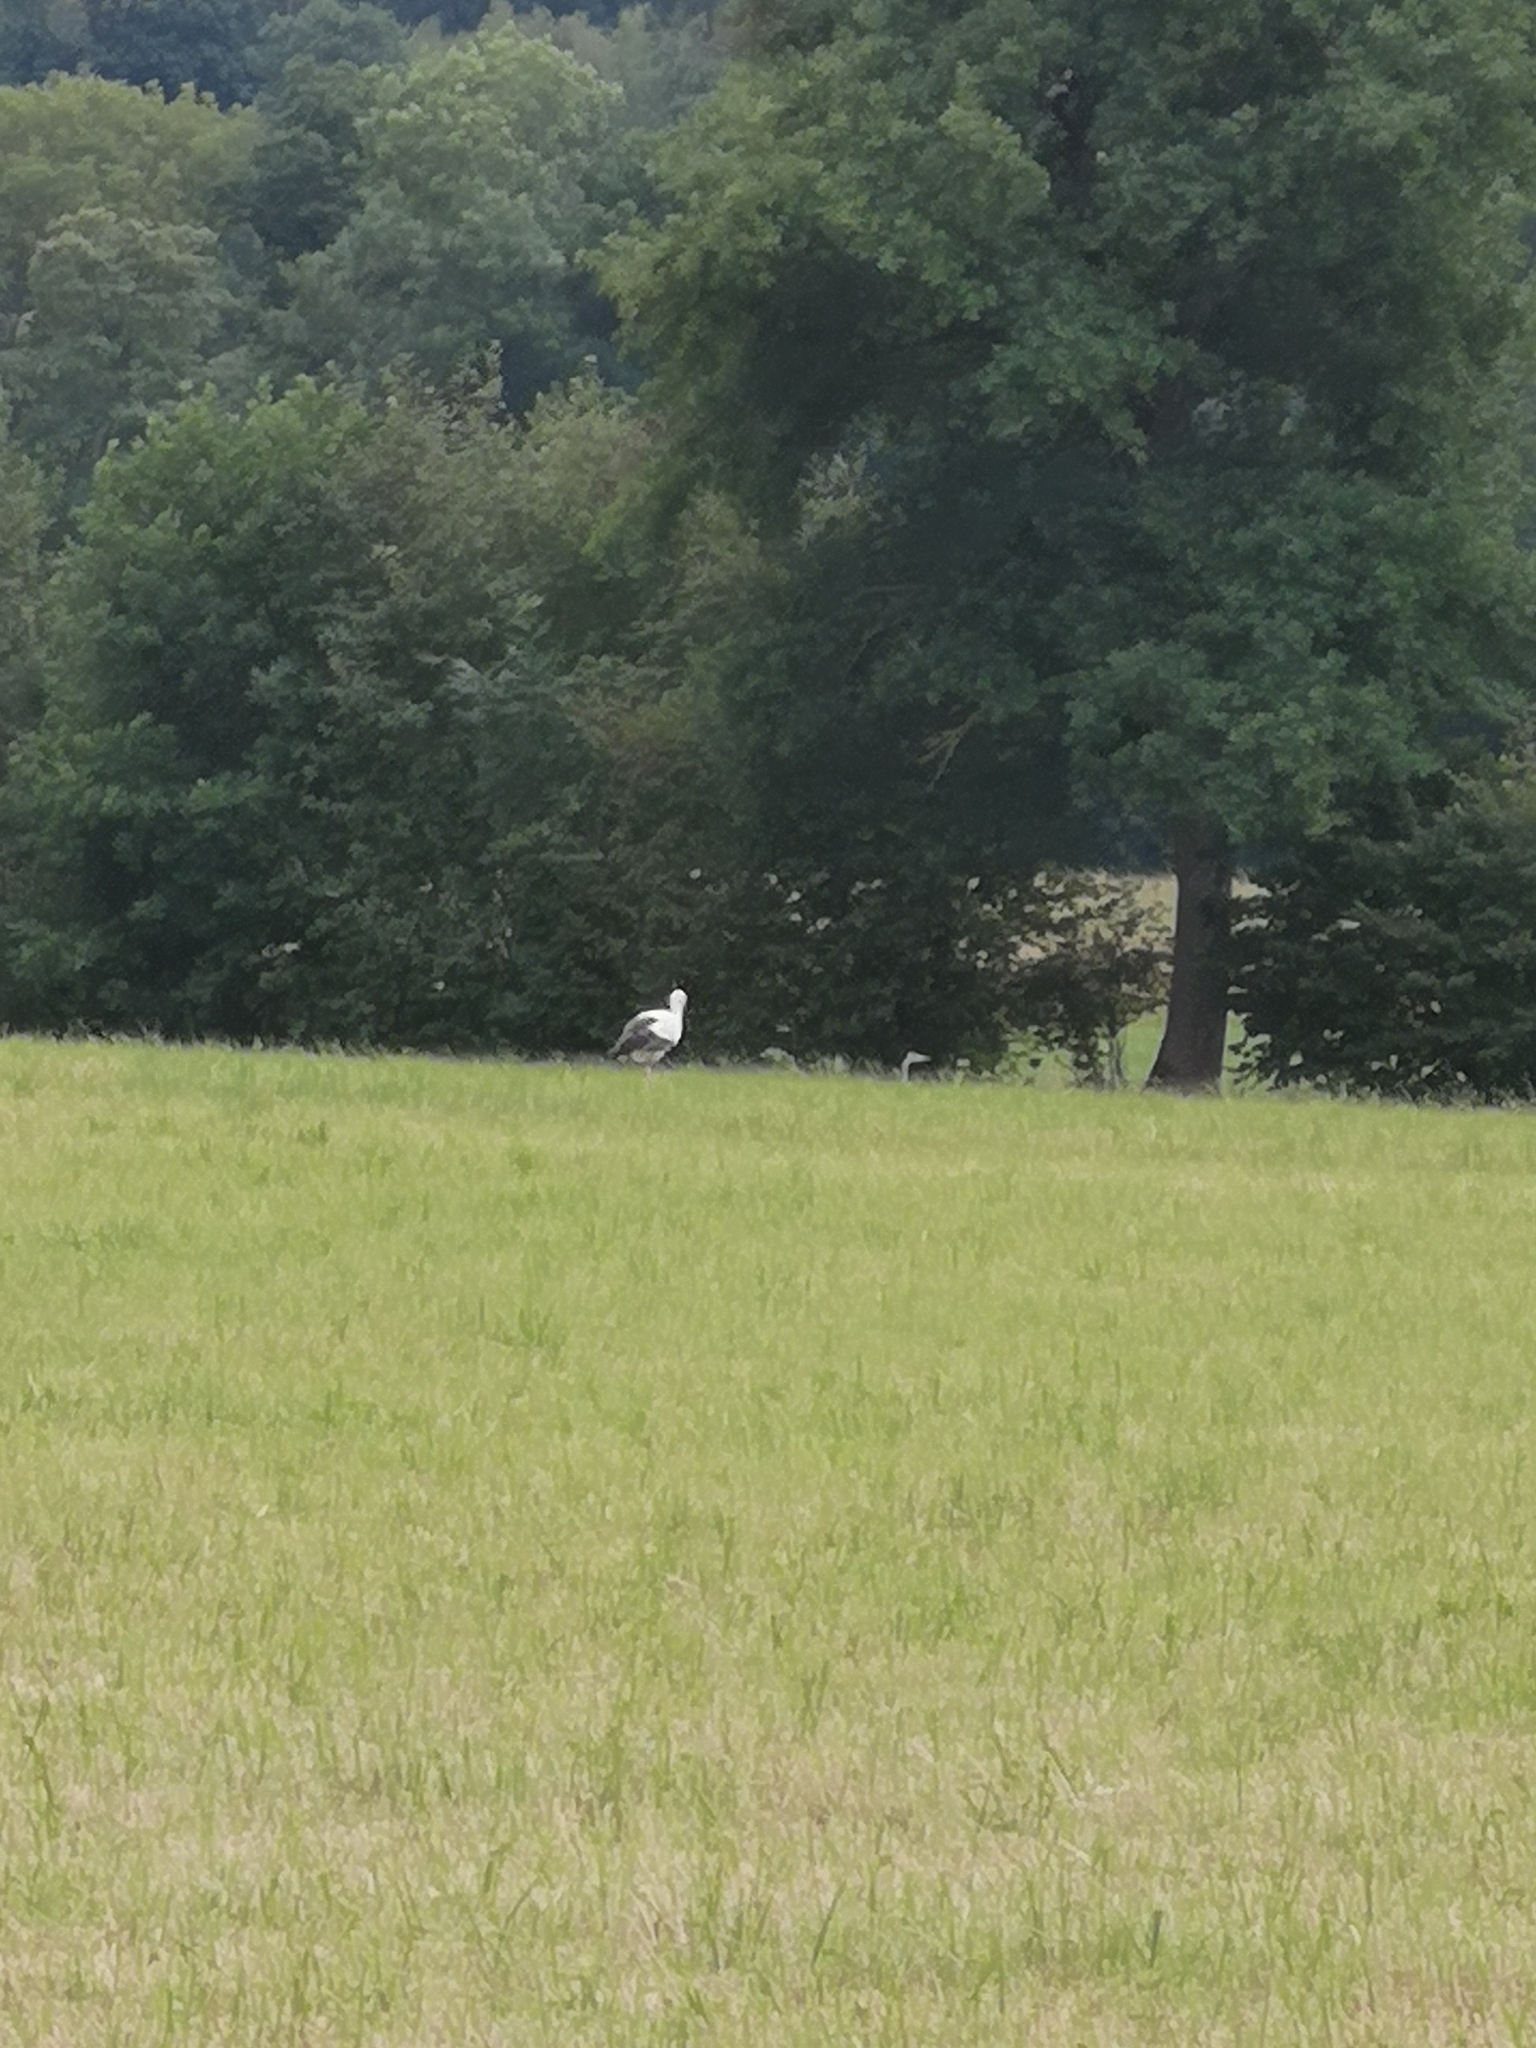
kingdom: Animalia
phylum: Chordata
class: Aves
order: Ciconiiformes
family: Ciconiidae
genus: Ciconia
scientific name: Ciconia ciconia
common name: White stork
